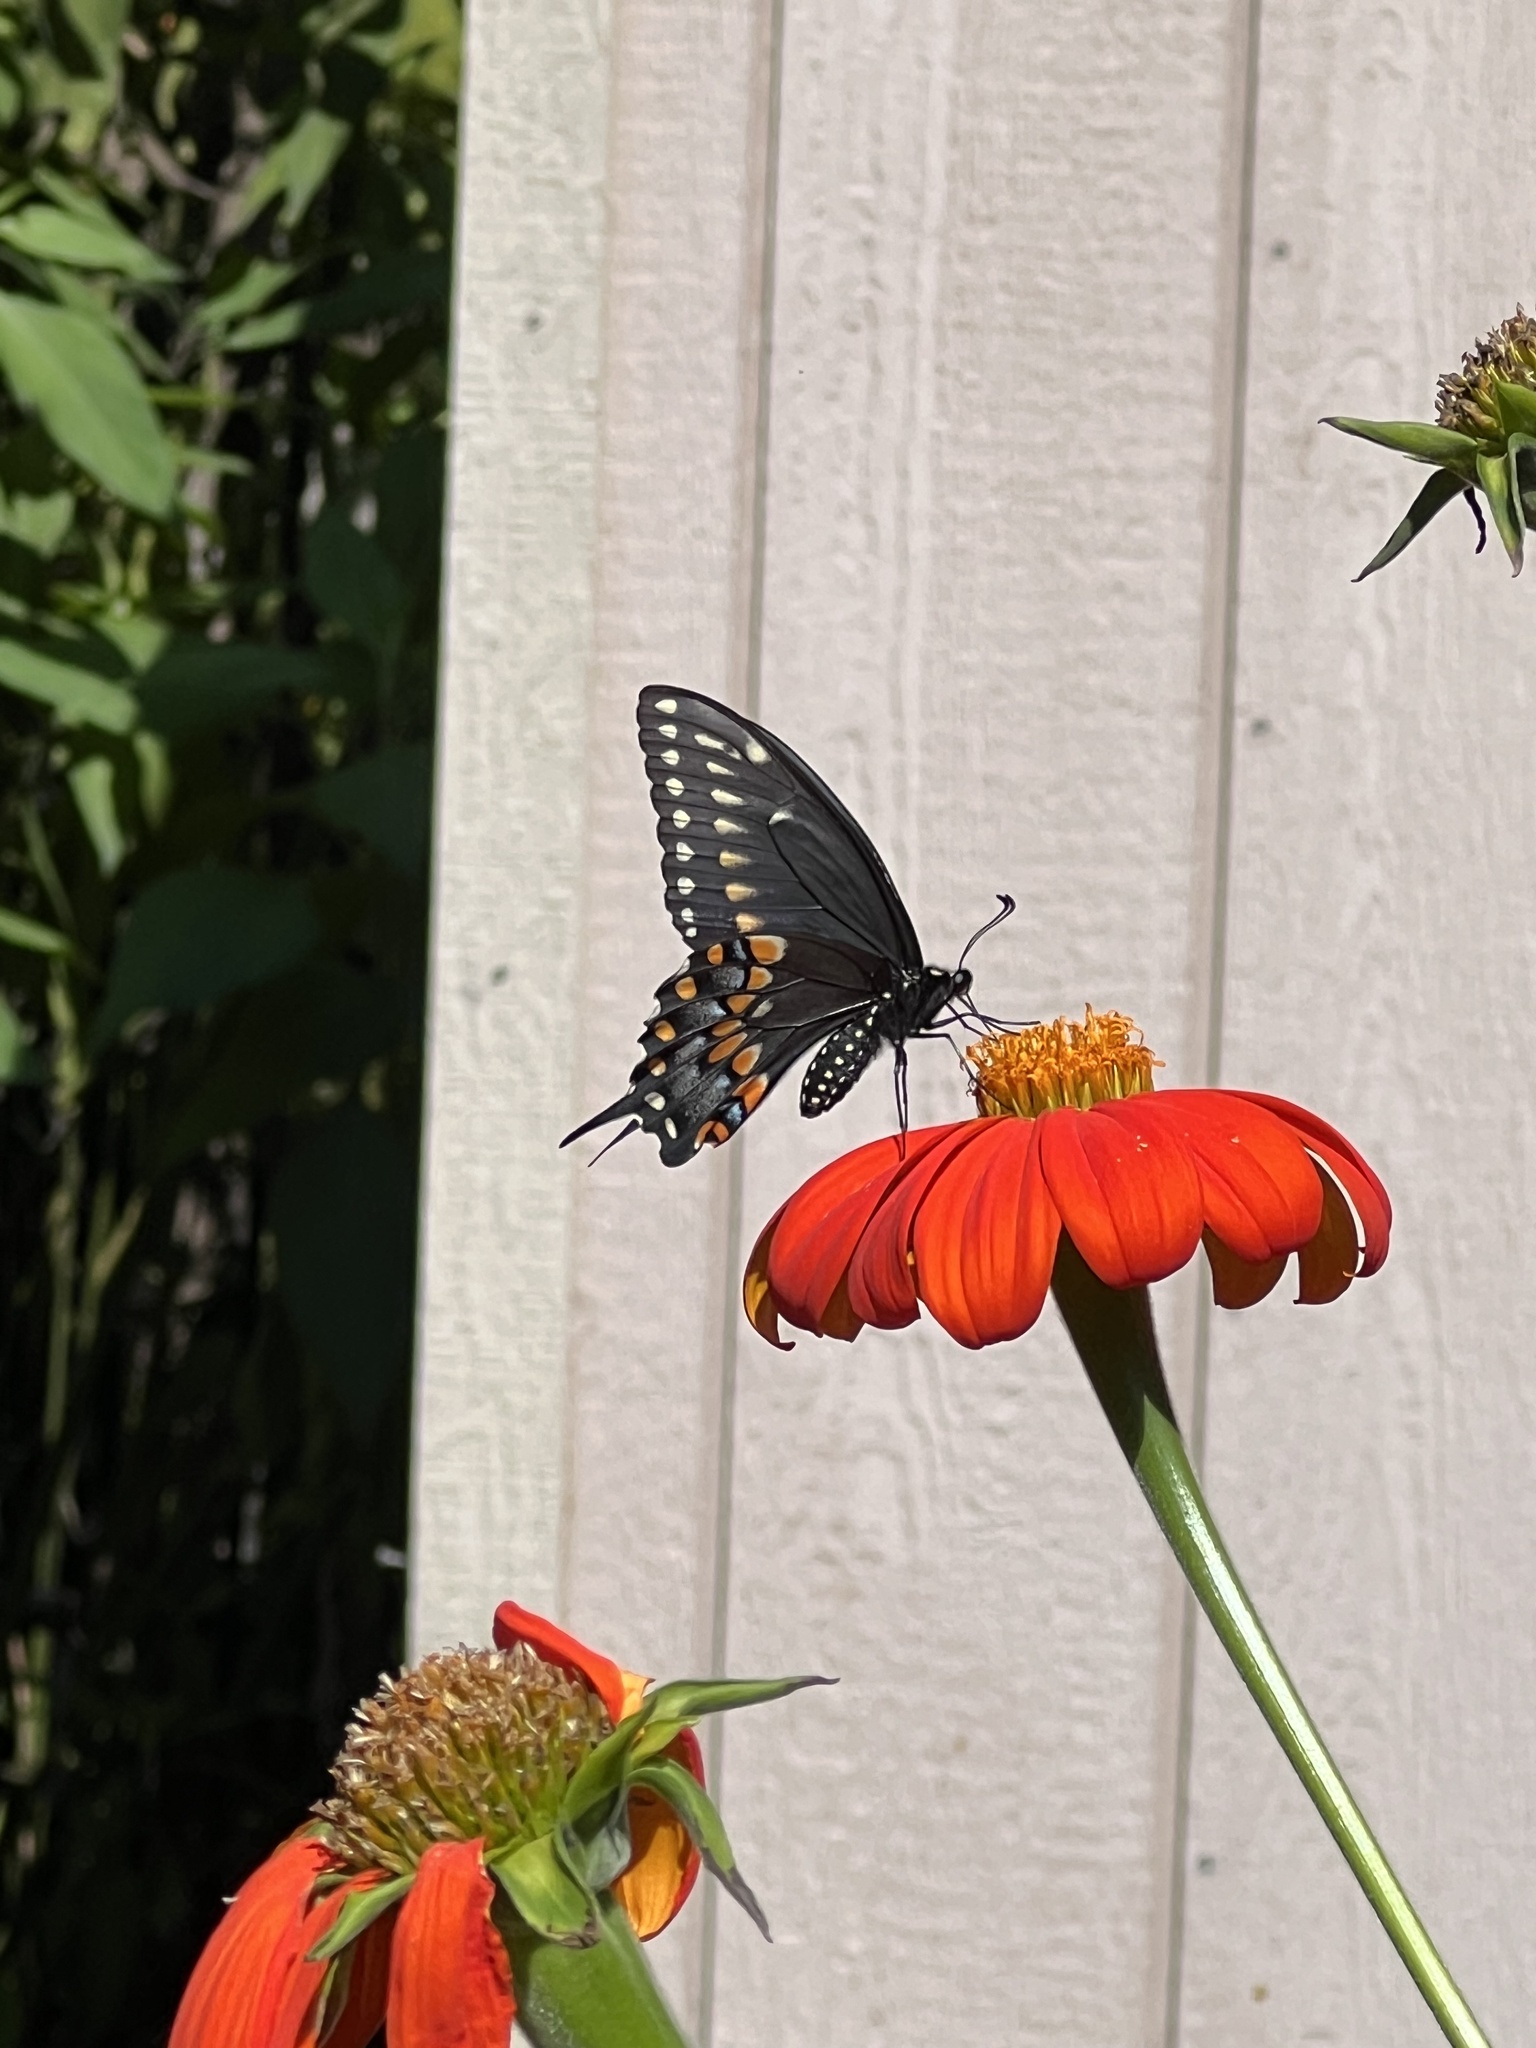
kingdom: Animalia
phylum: Arthropoda
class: Insecta
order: Lepidoptera
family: Papilionidae
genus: Papilio
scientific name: Papilio polyxenes
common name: Black swallowtail
